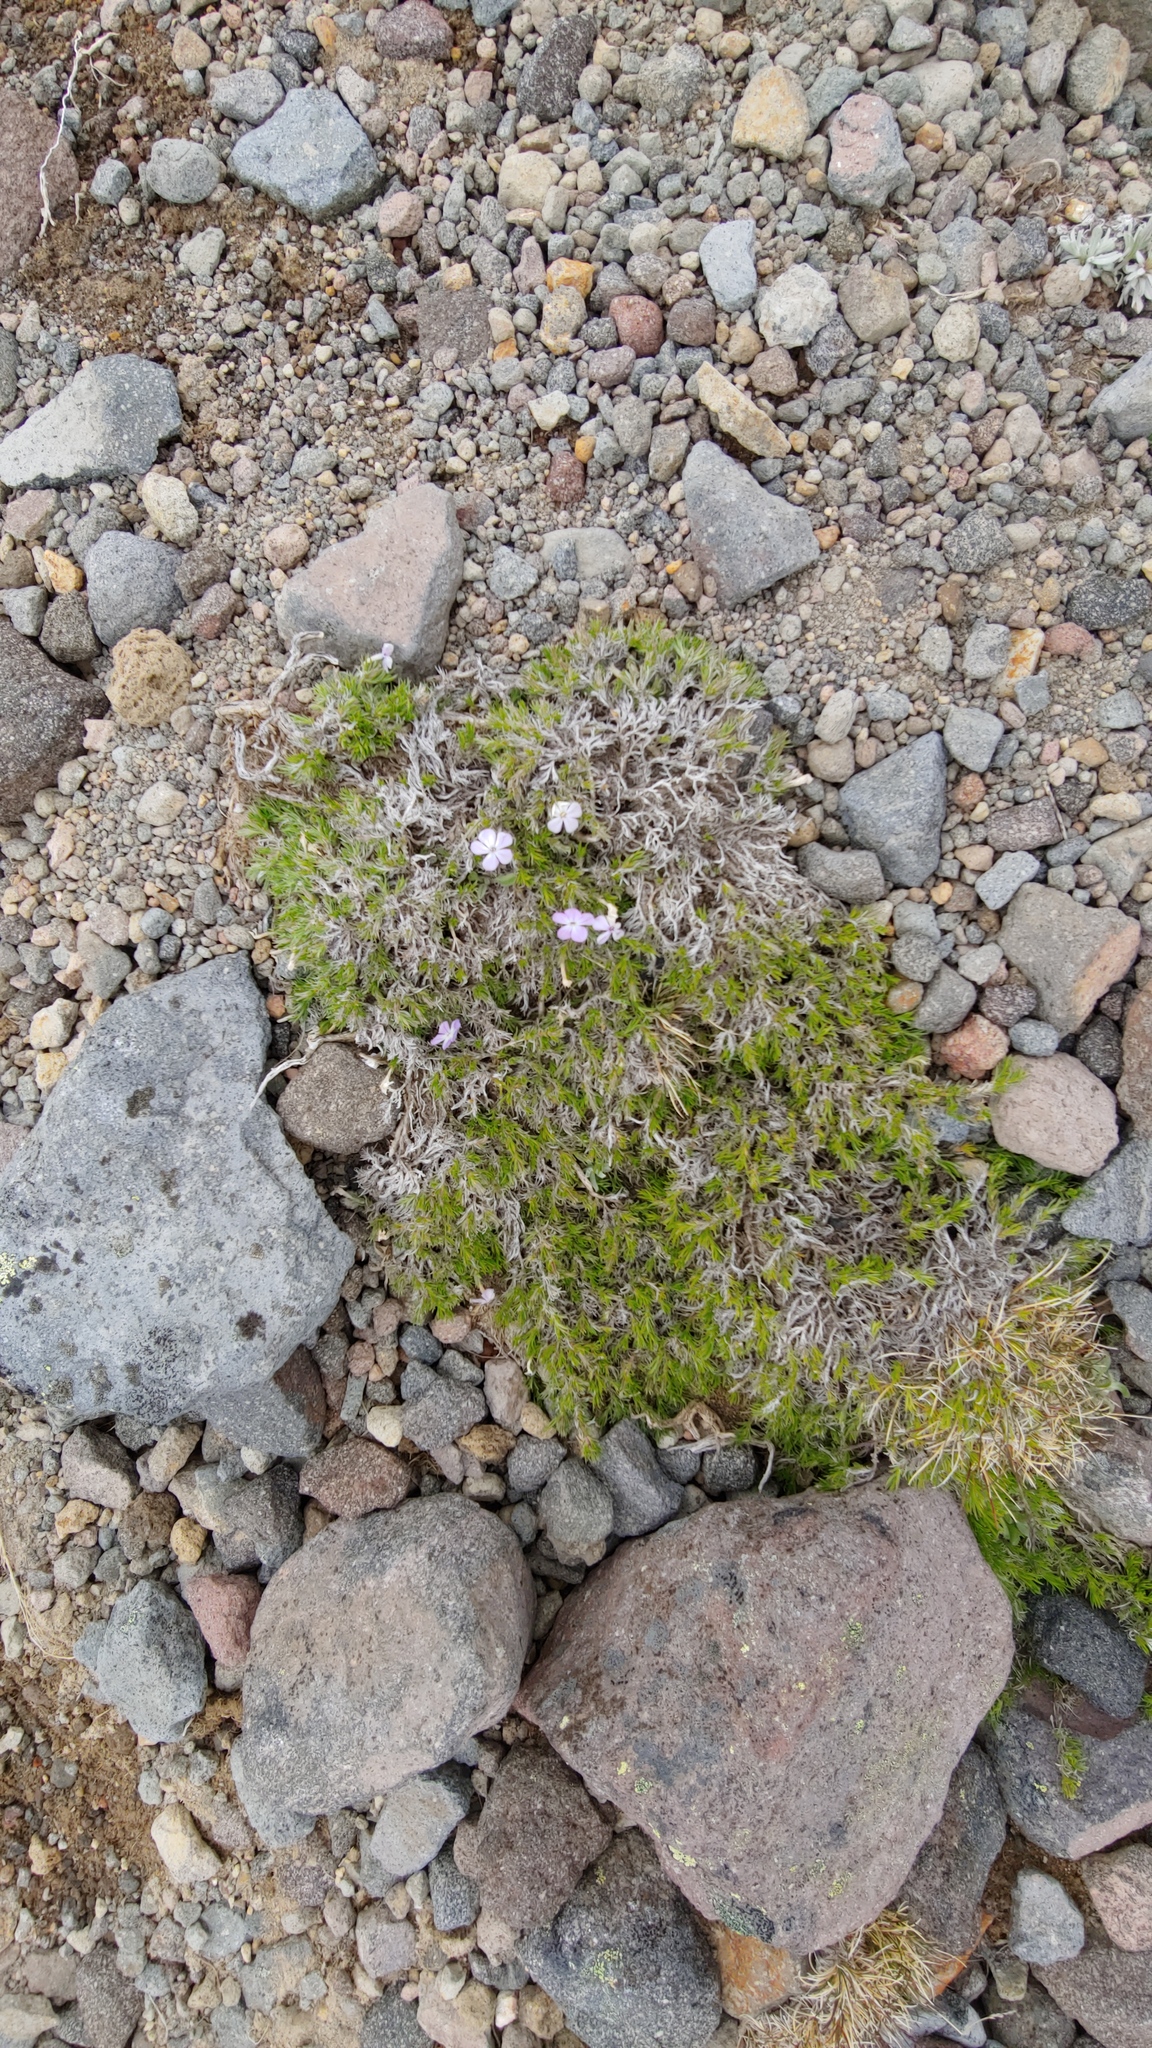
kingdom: Plantae
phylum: Tracheophyta
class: Magnoliopsida
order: Ericales
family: Polemoniaceae
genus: Phlox
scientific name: Phlox diffusa
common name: Mat phlox
